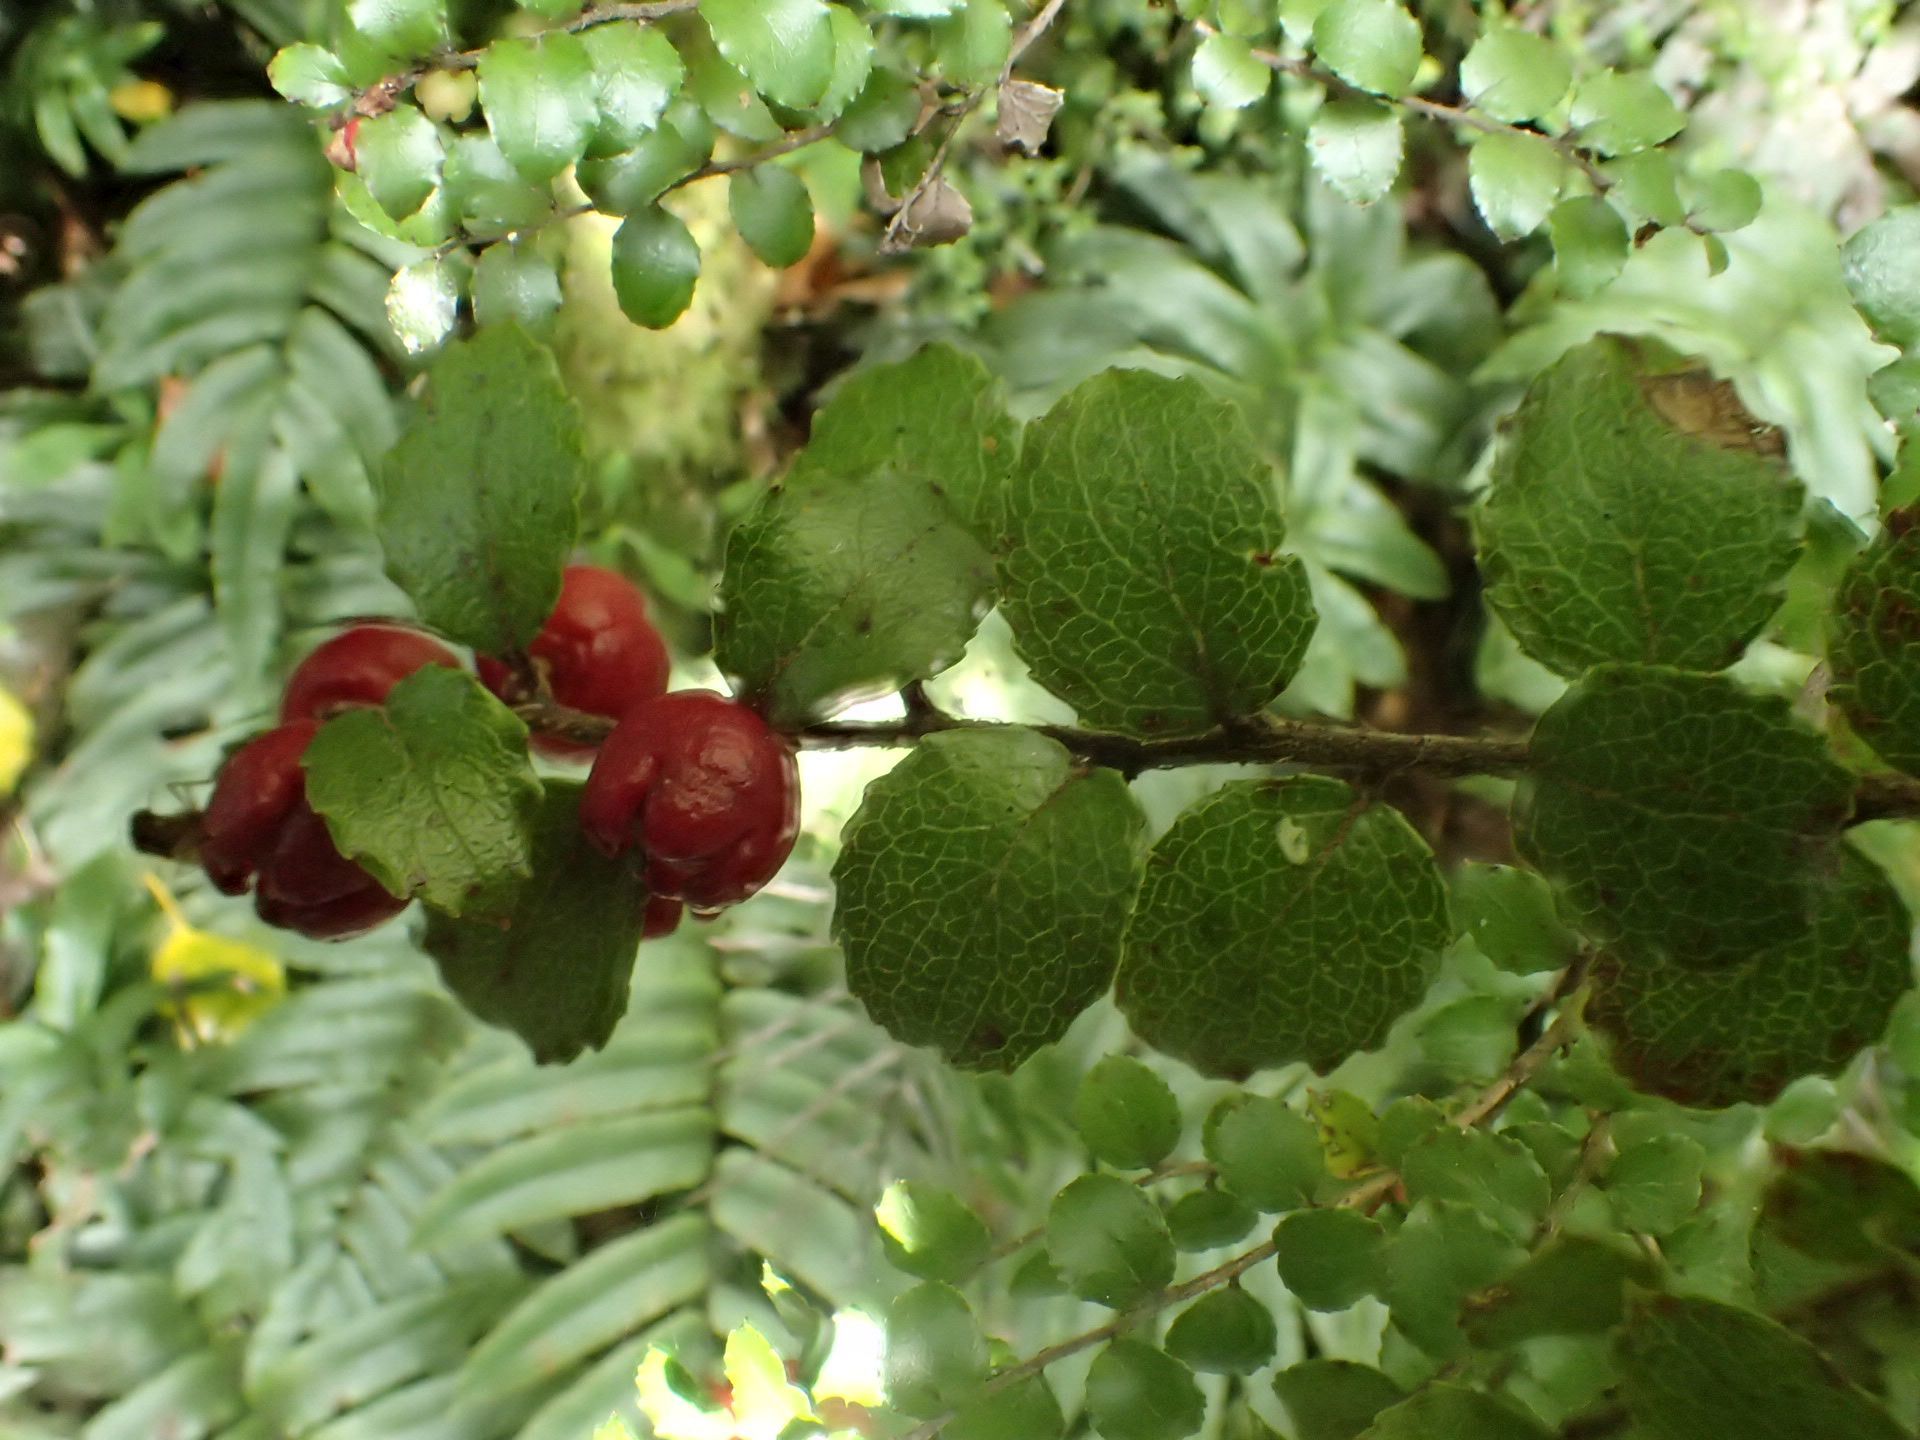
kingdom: Plantae
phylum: Tracheophyta
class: Magnoliopsida
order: Ericales
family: Ericaceae
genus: Gaultheria
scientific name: Gaultheria antipoda
